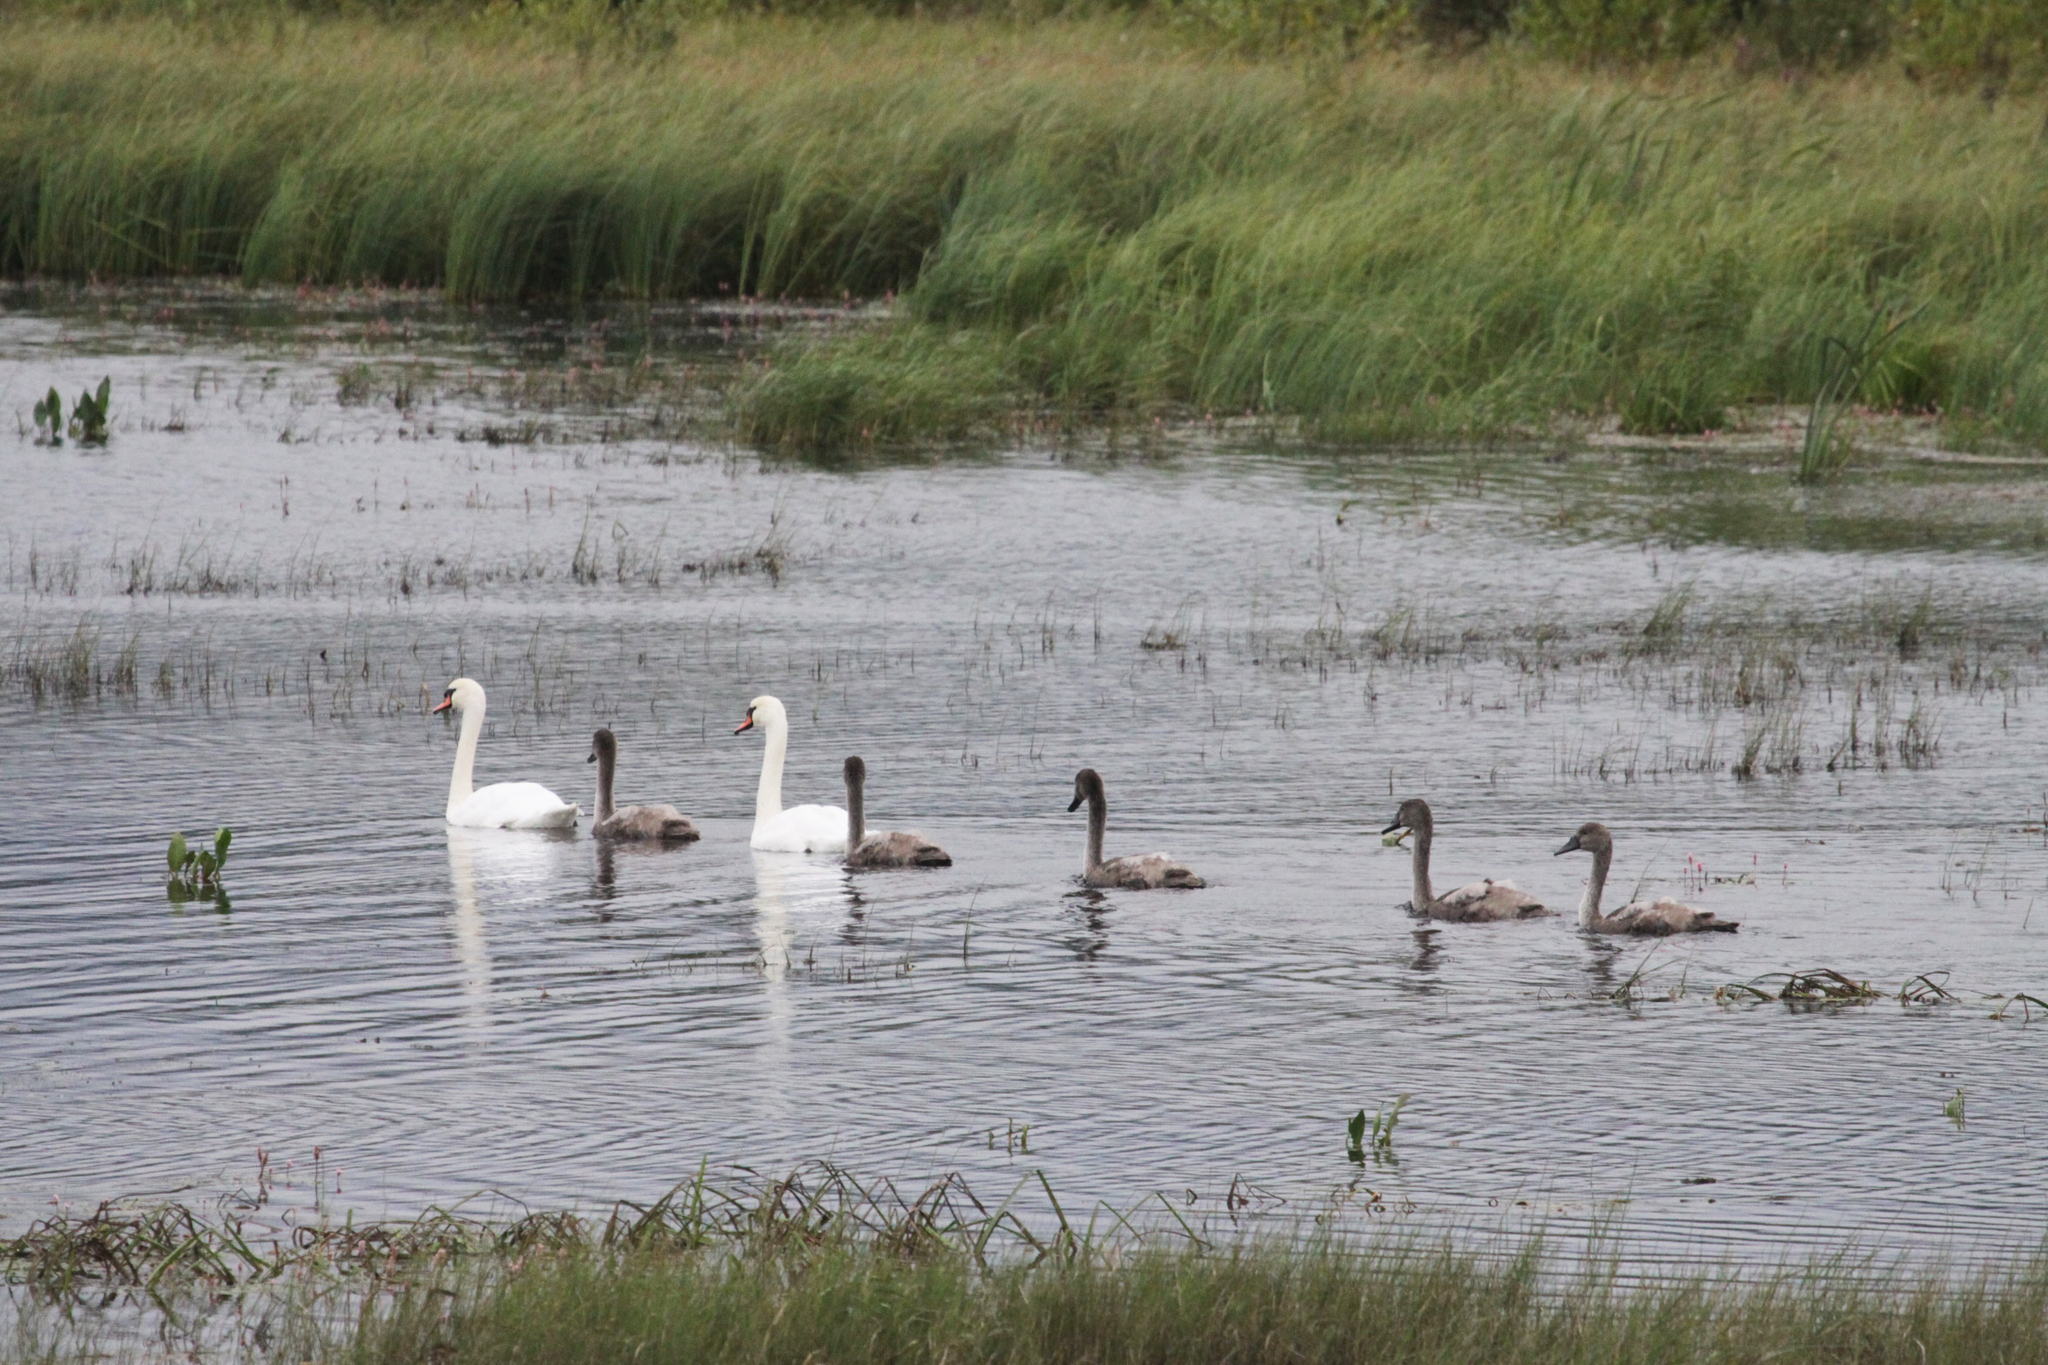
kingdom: Animalia
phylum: Chordata
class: Aves
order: Anseriformes
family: Anatidae
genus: Cygnus
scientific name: Cygnus olor
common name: Mute swan
